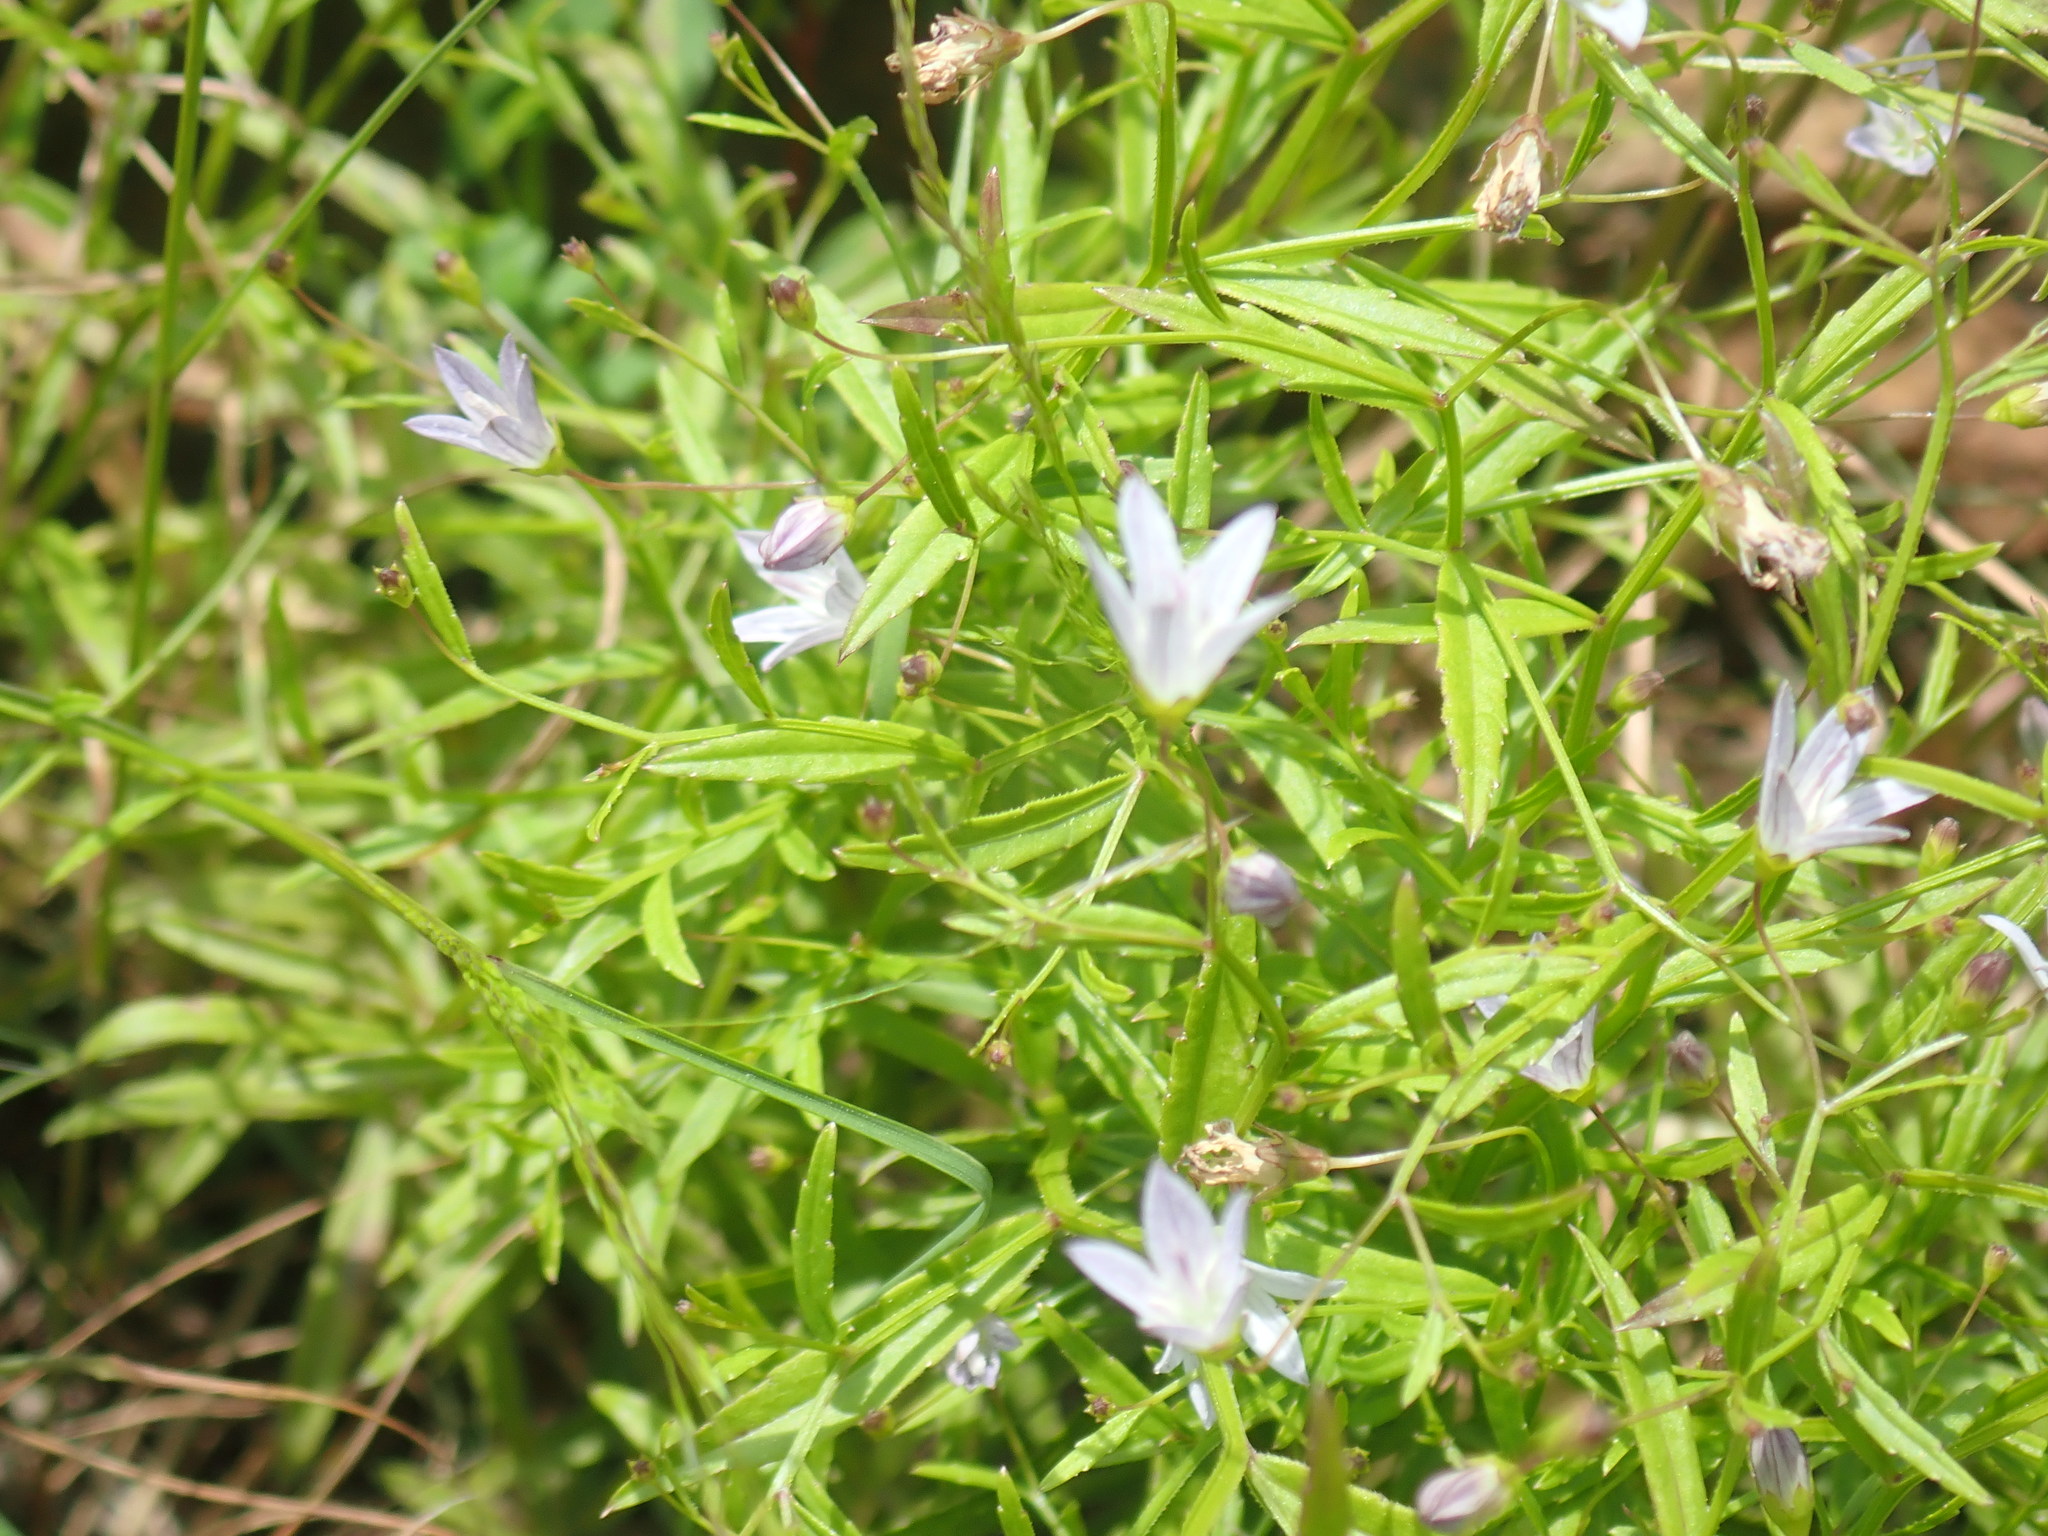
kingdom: Plantae
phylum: Tracheophyta
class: Magnoliopsida
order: Asterales
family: Campanulaceae
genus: Palustricodon
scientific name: Palustricodon aparinoides
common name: Bedstraw bellflower
